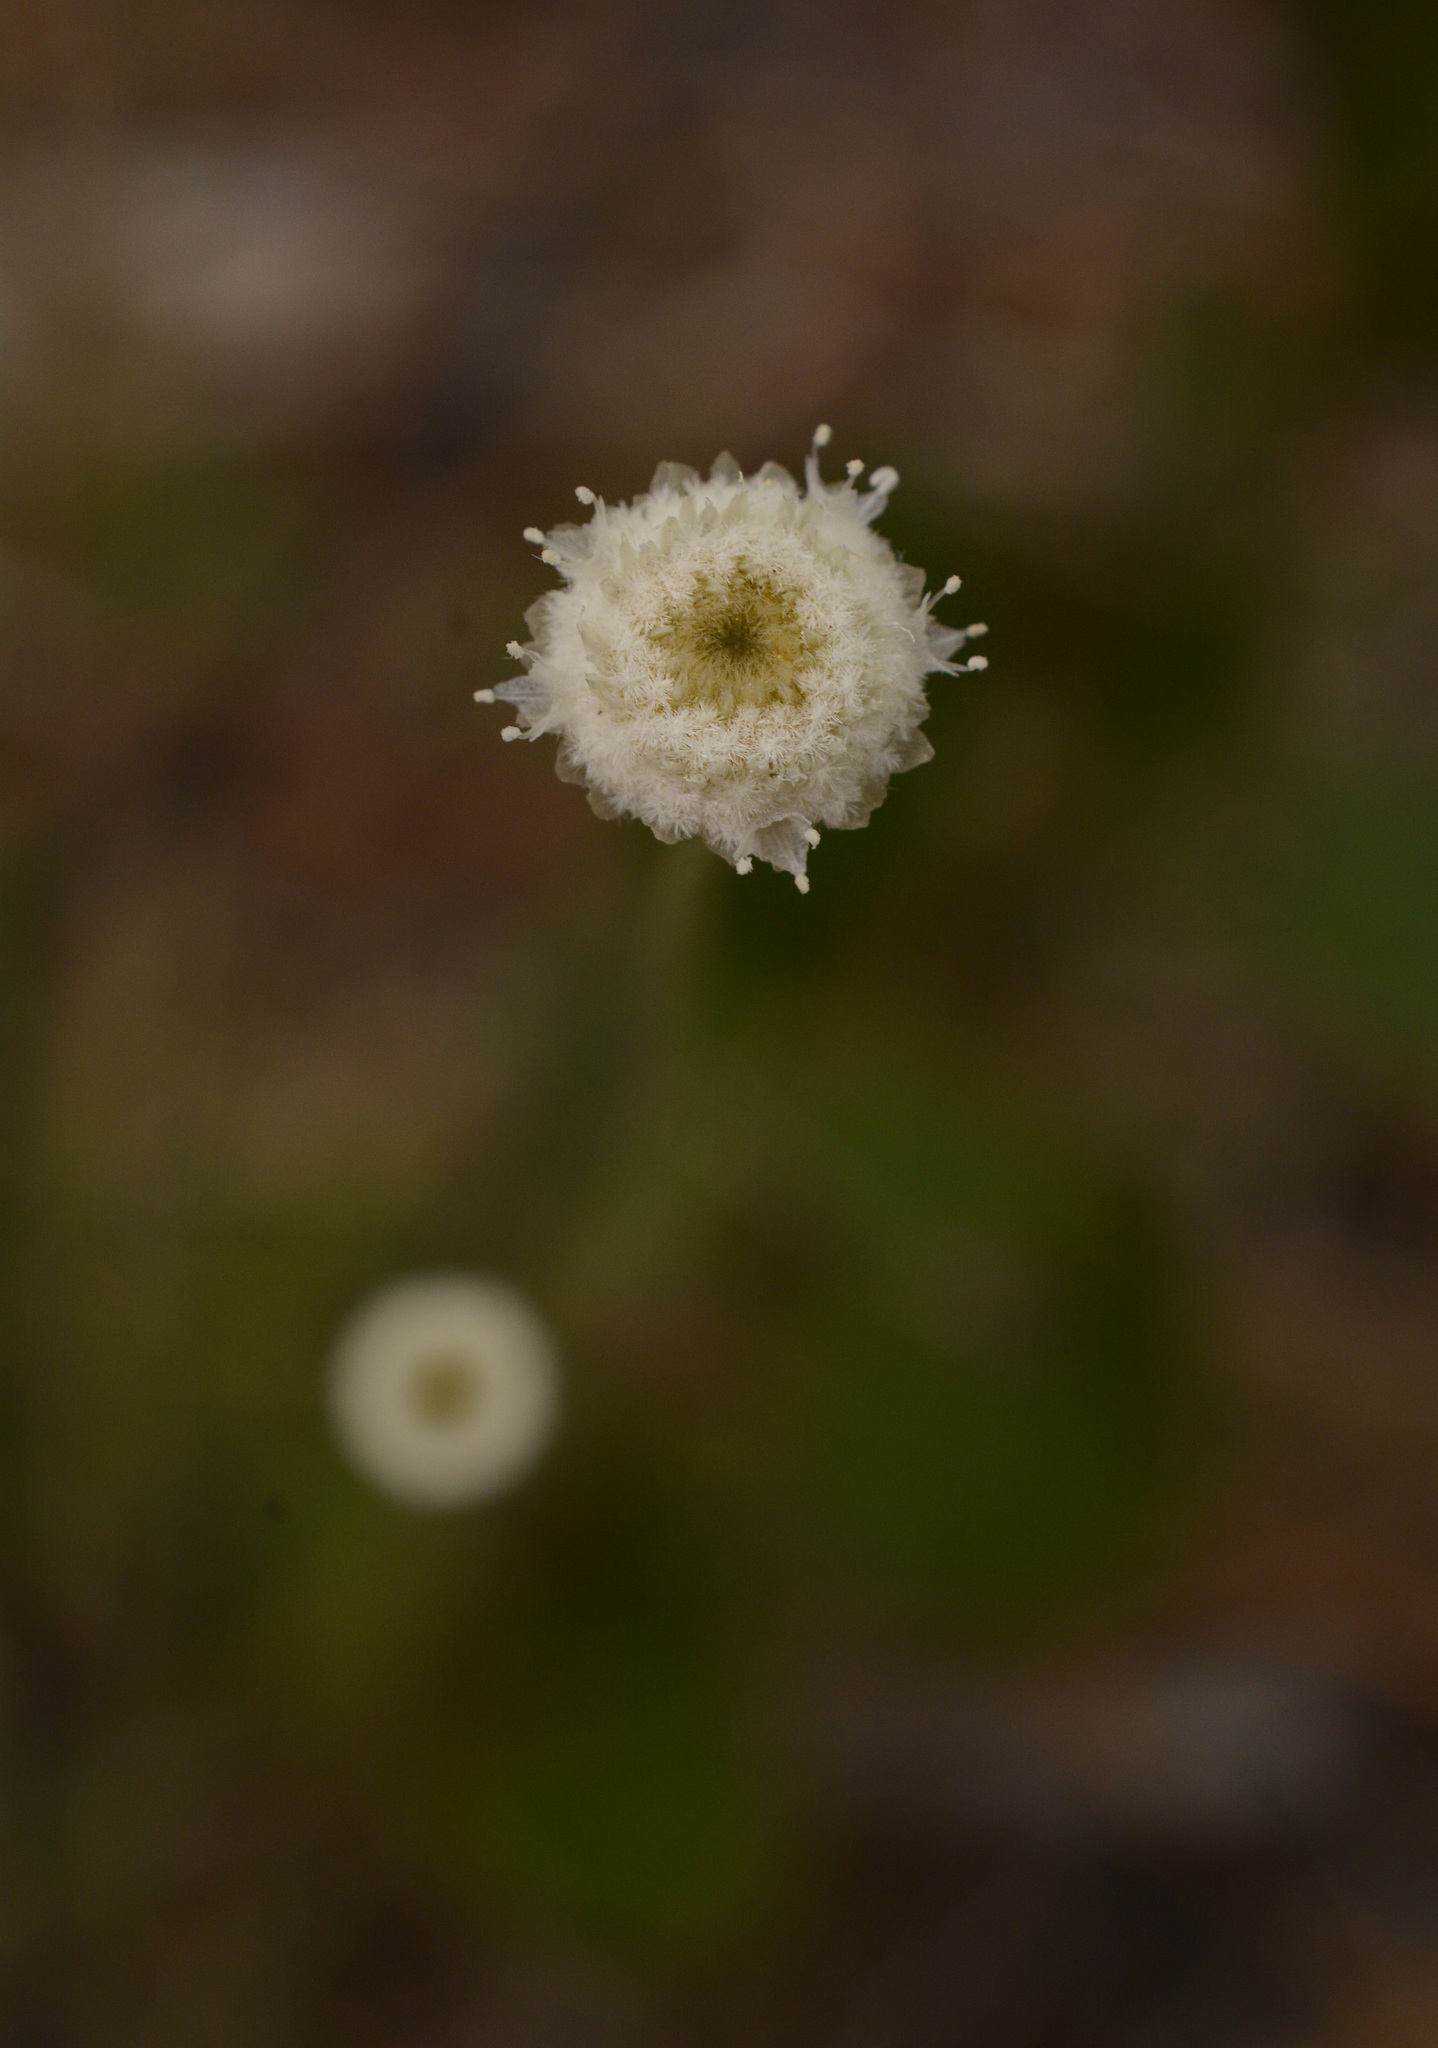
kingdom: Plantae
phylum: Tracheophyta
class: Liliopsida
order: Poales
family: Eriocaulaceae
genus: Syngonanthus
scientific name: Syngonanthus flavidulus
